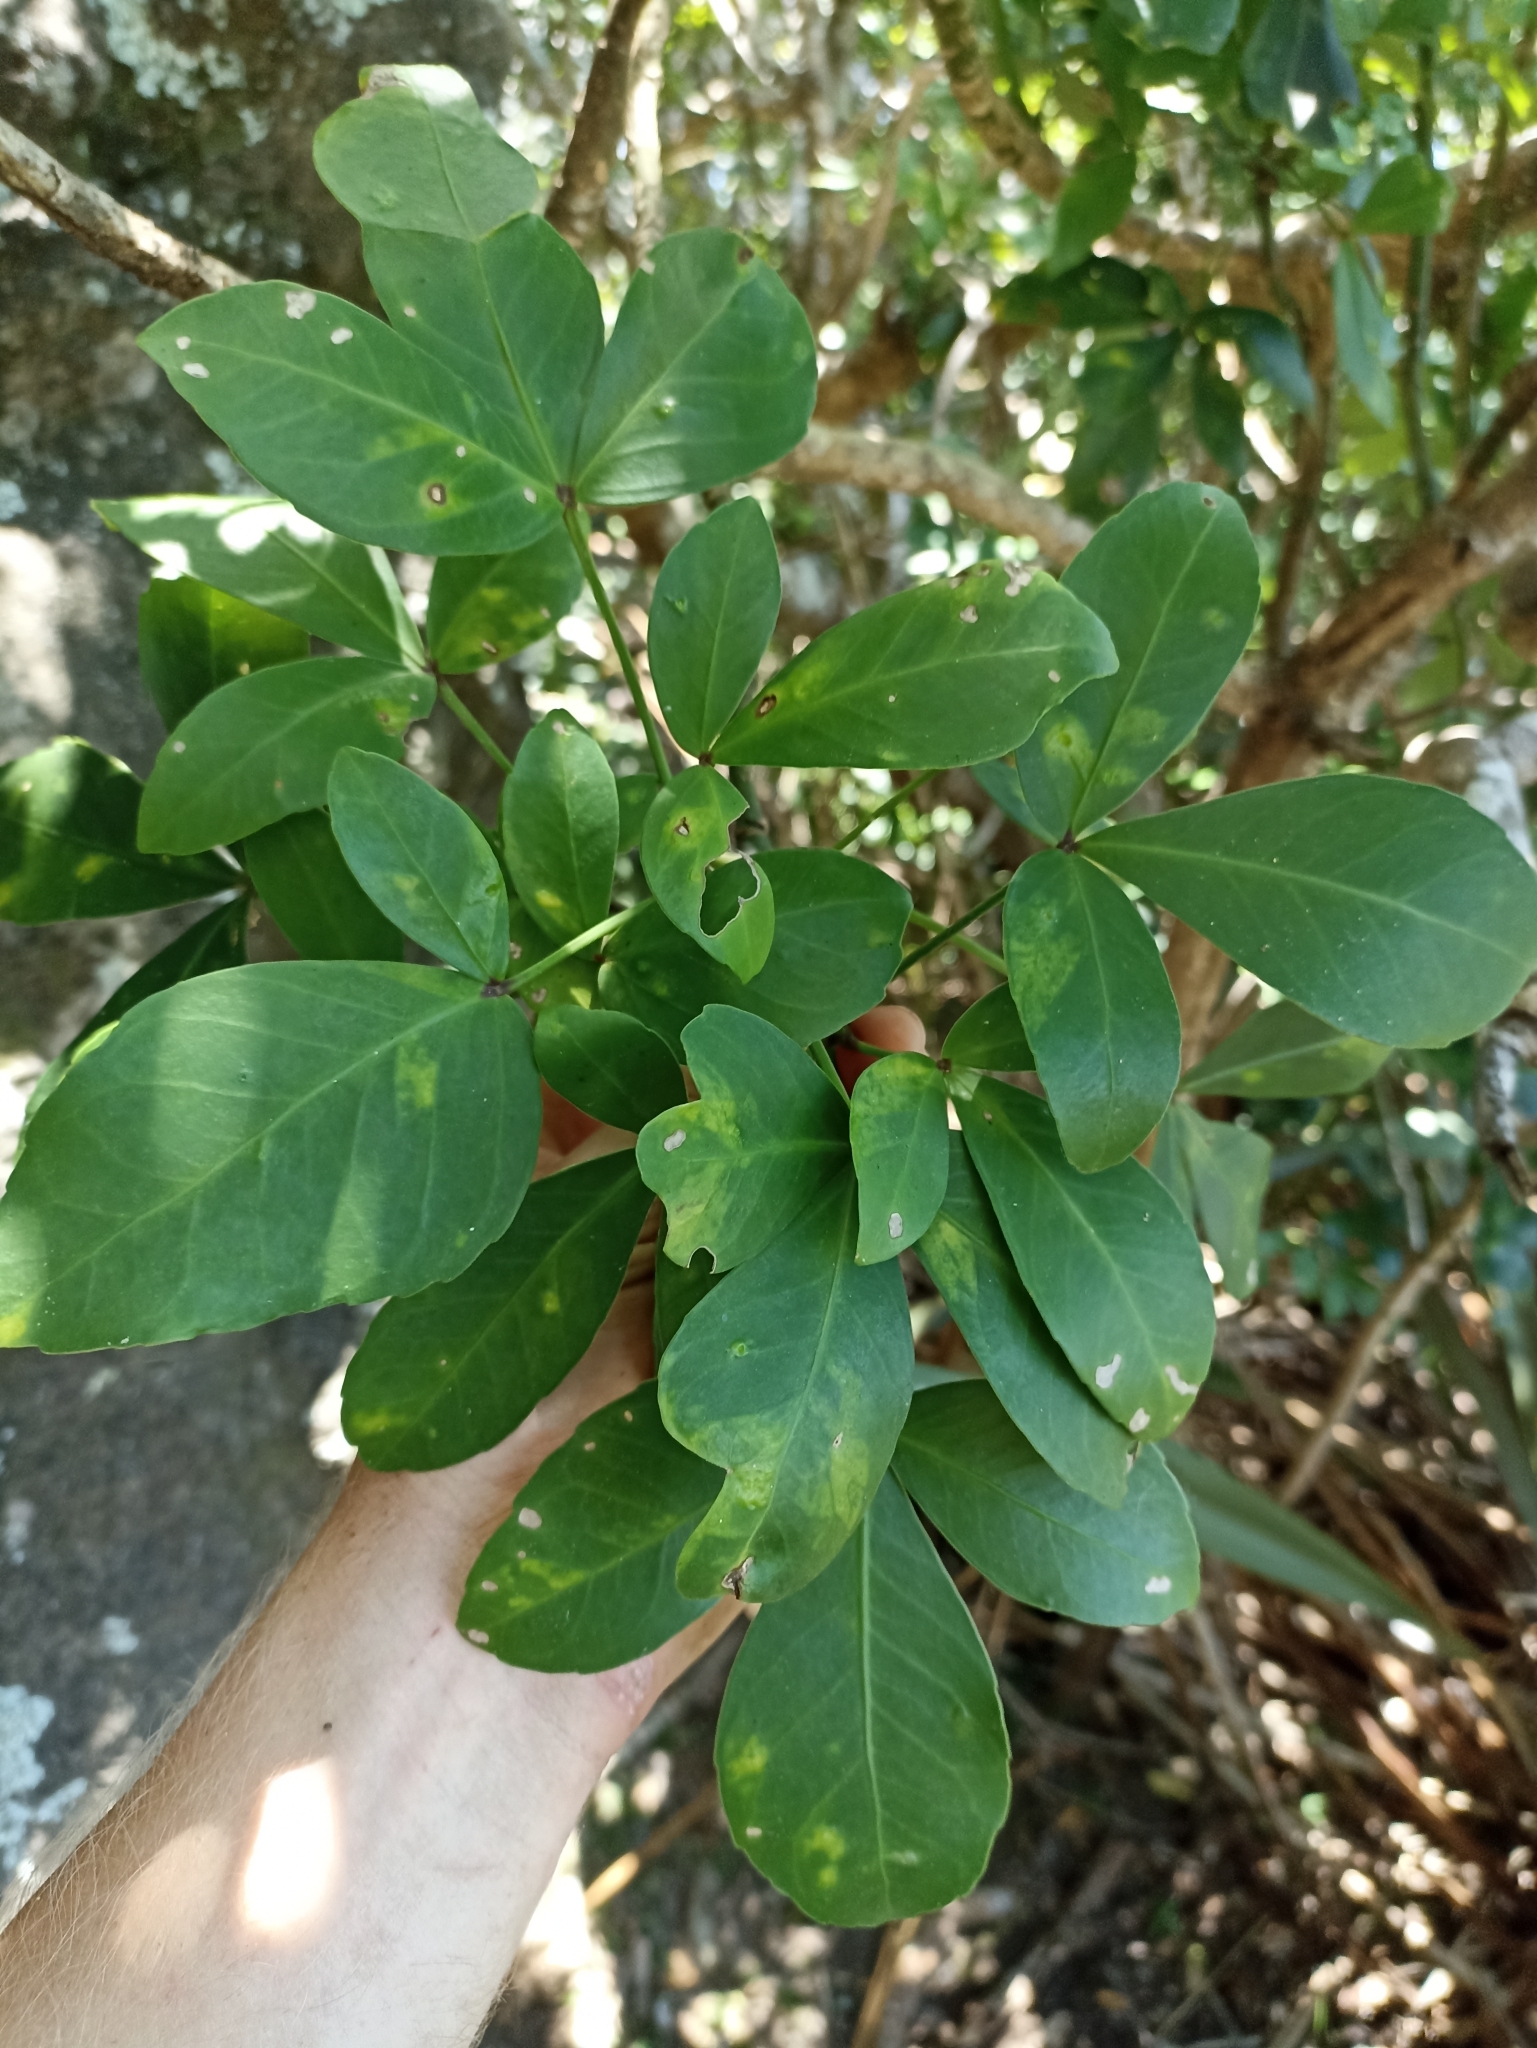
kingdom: Plantae
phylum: Tracheophyta
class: Magnoliopsida
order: Apiales
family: Araliaceae
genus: Pseudopanax
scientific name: Pseudopanax lessonii
